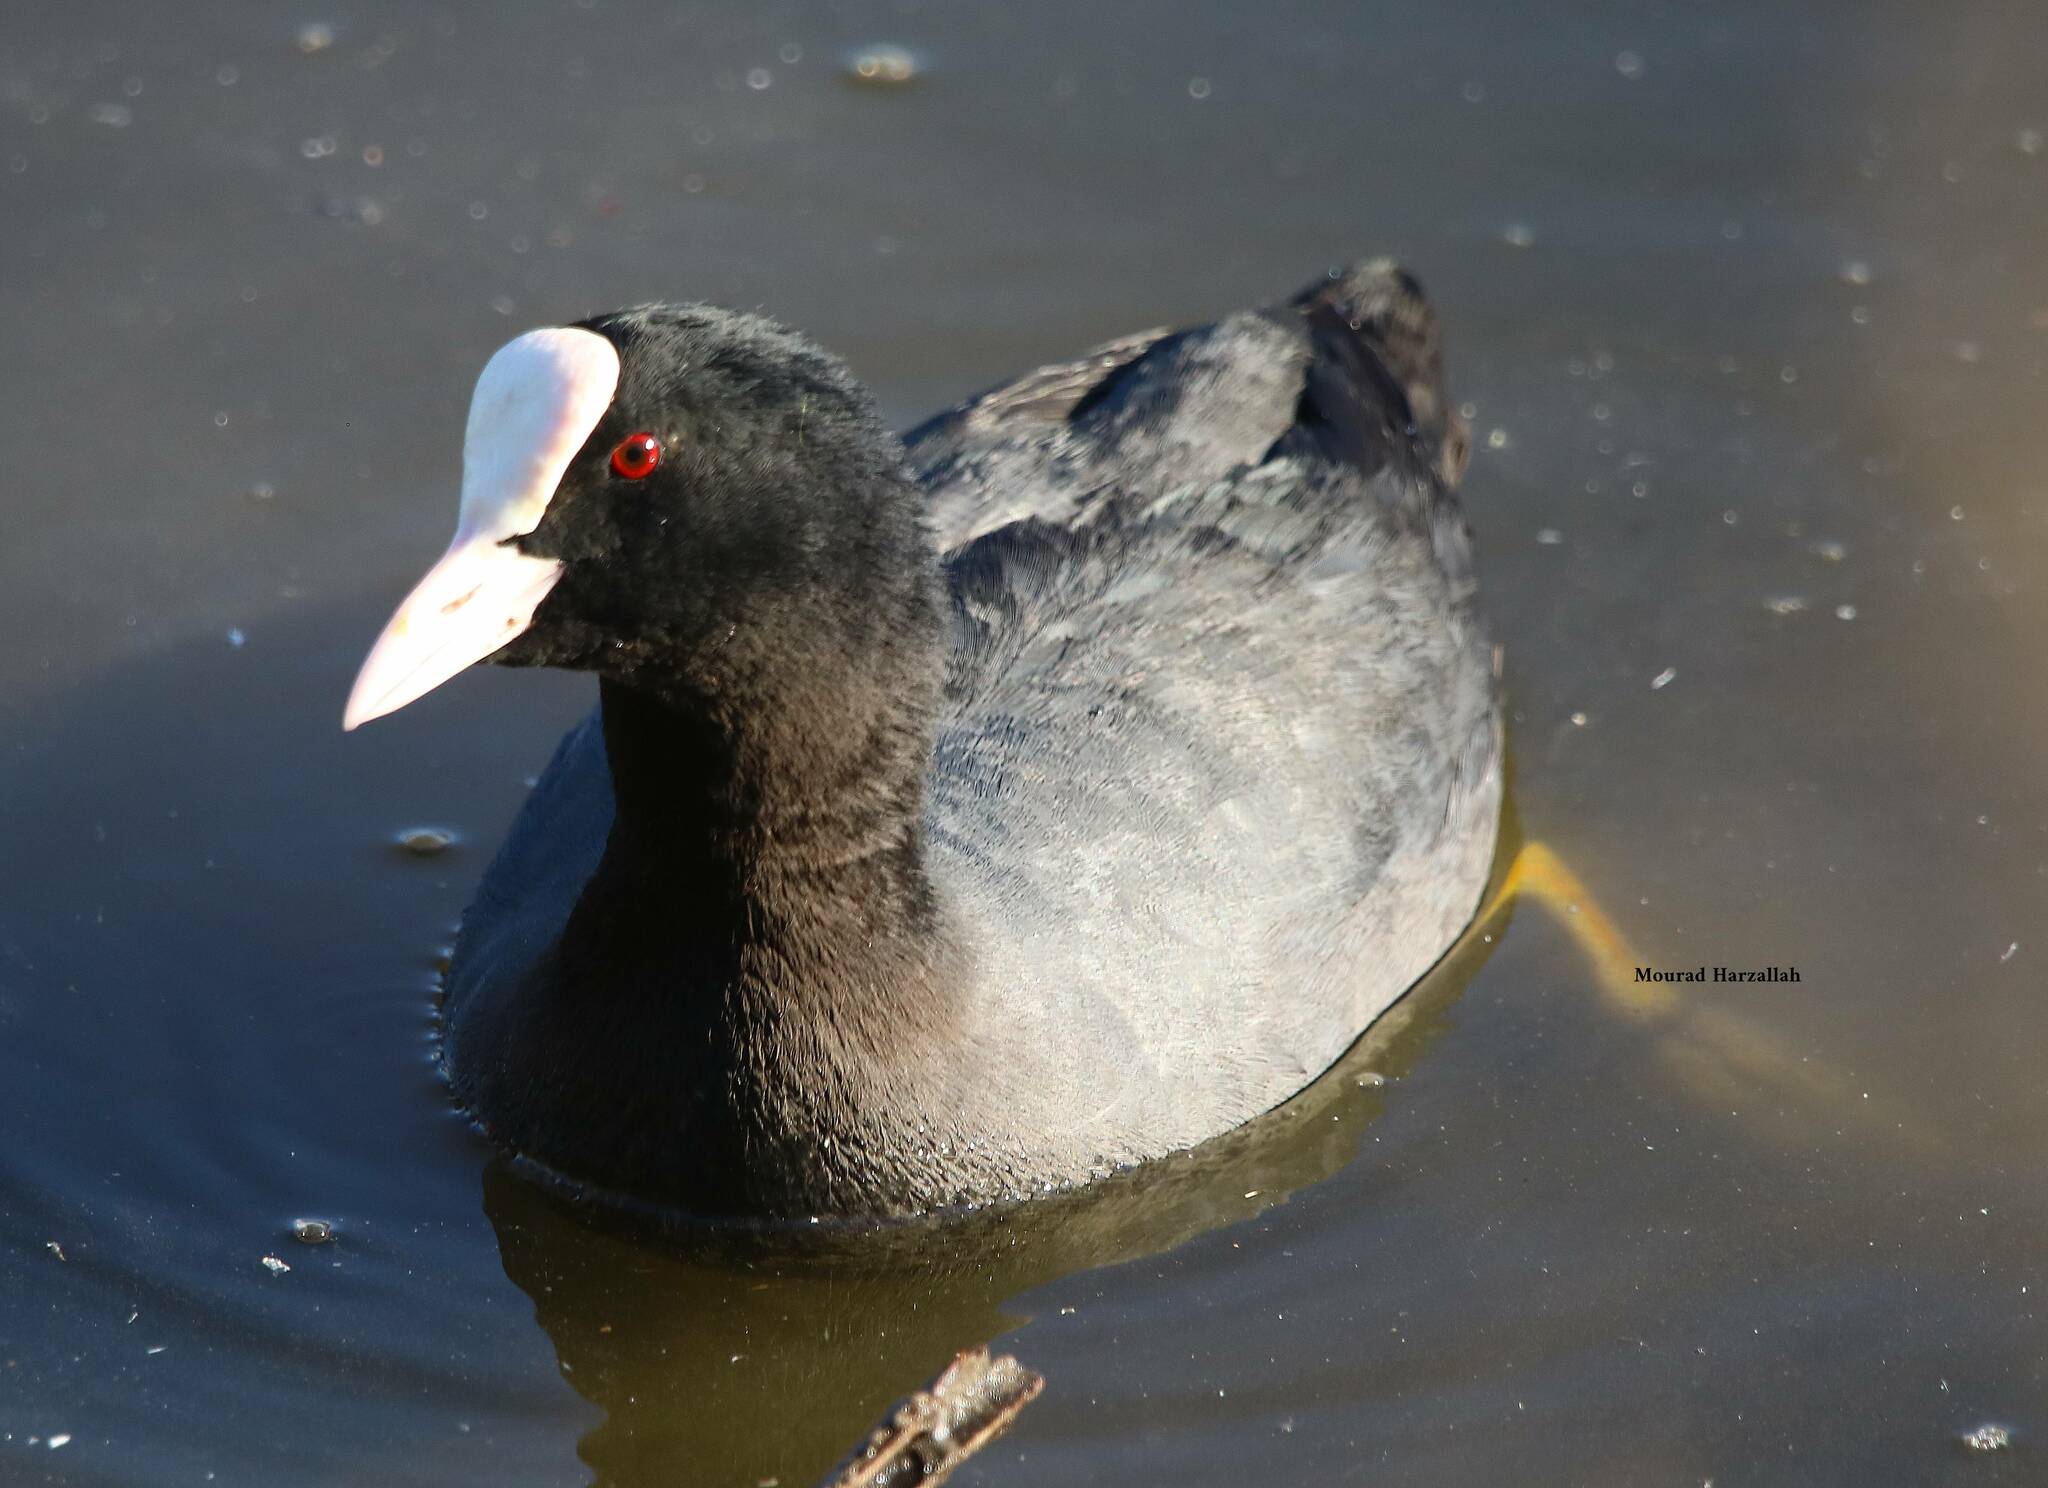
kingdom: Animalia
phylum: Chordata
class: Aves
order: Gruiformes
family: Rallidae
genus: Fulica
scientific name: Fulica atra
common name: Eurasian coot
